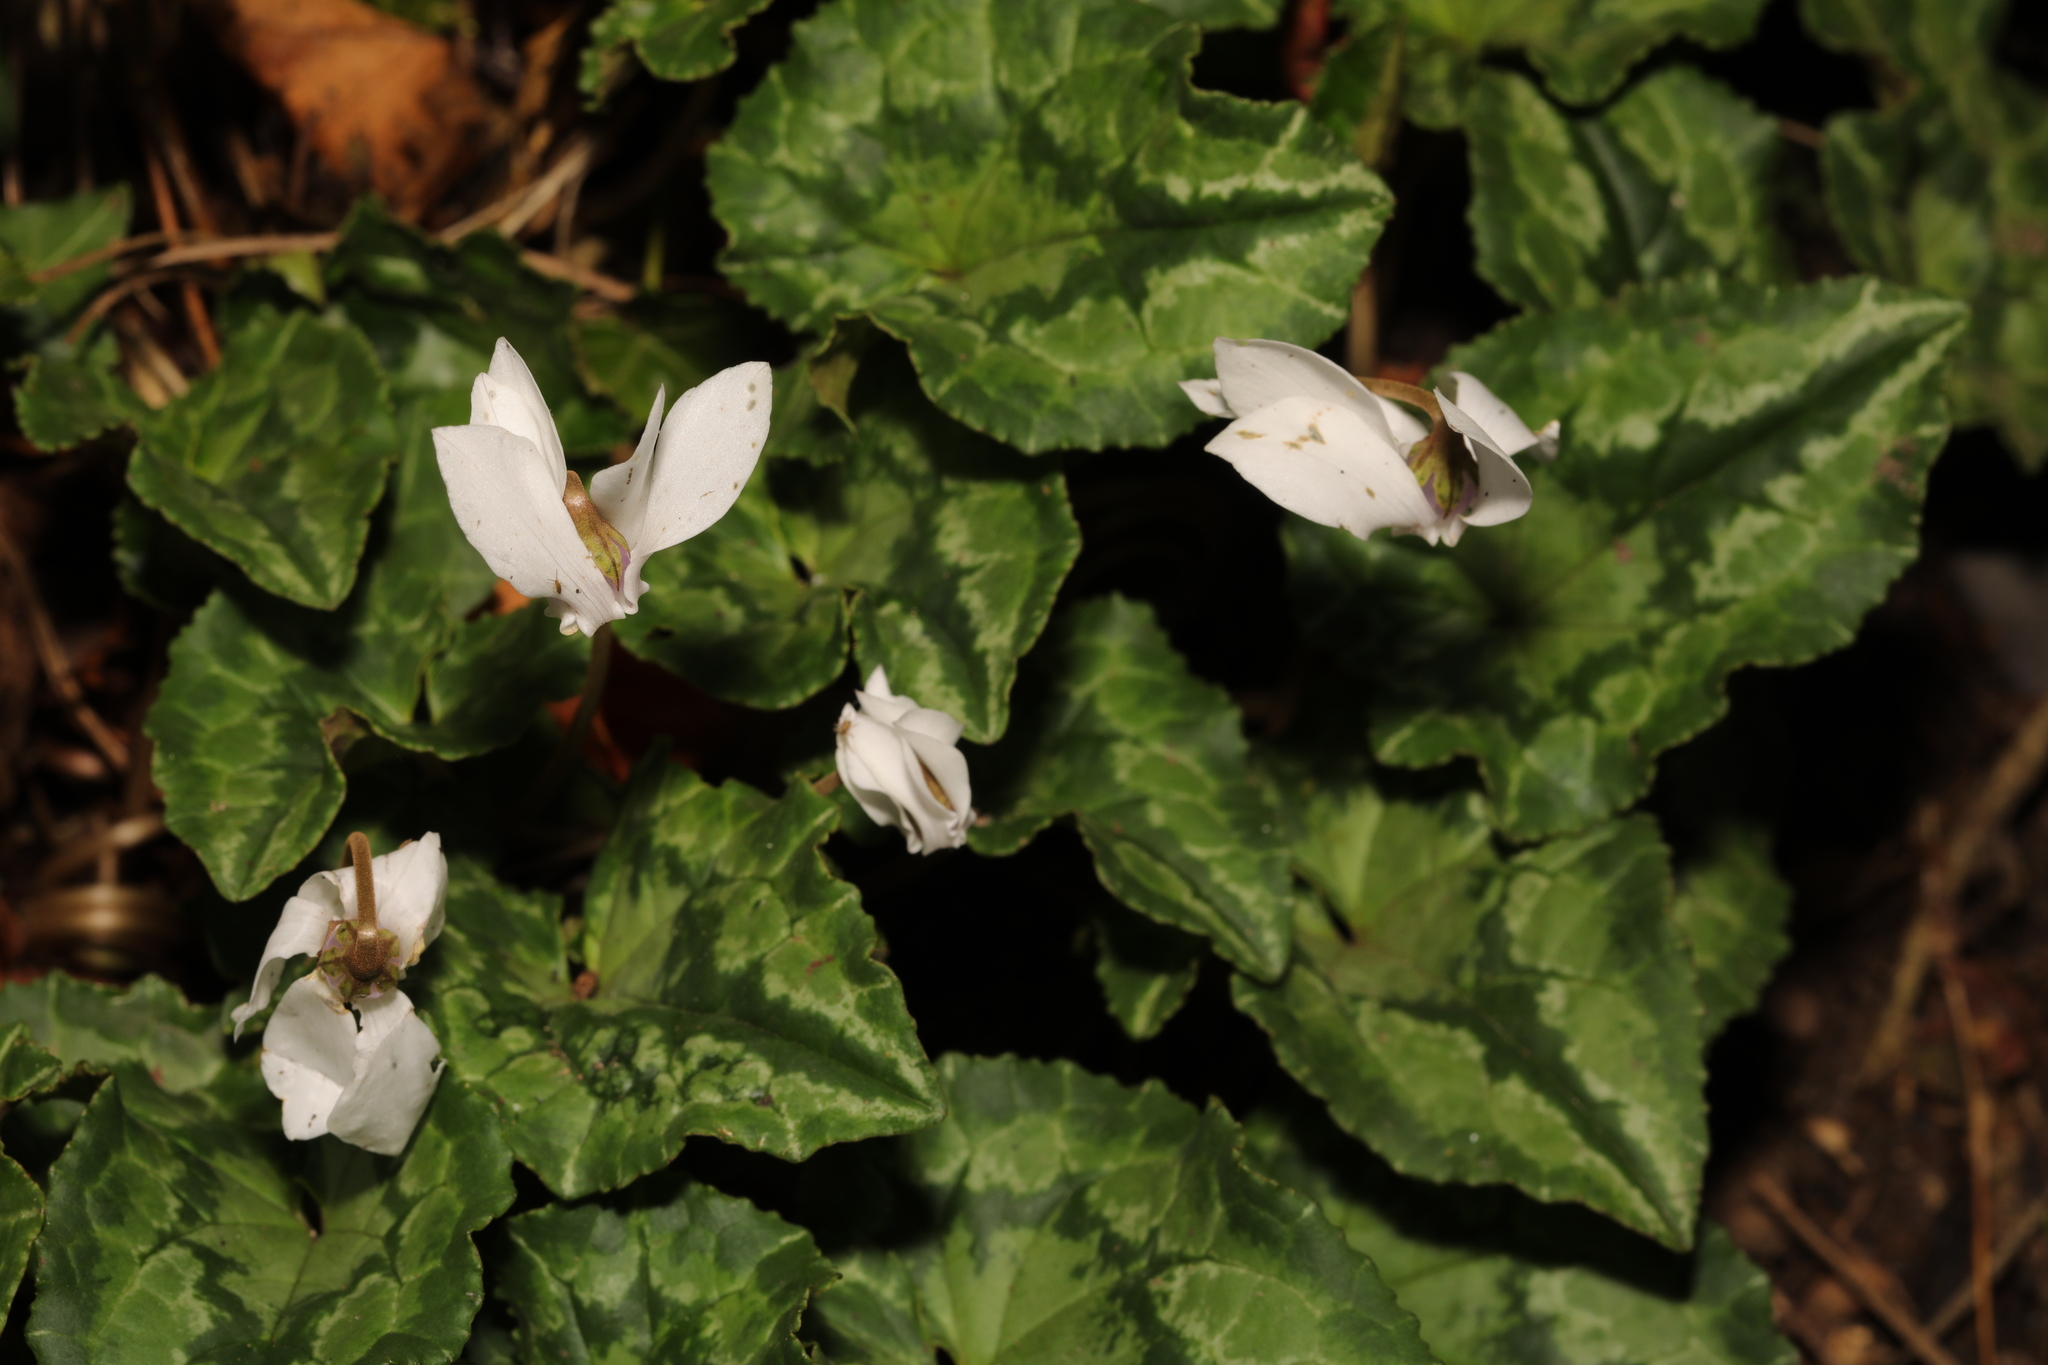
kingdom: Plantae
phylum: Tracheophyta
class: Magnoliopsida
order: Ericales
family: Primulaceae
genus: Cyclamen
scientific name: Cyclamen hederifolium
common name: Sowbread
